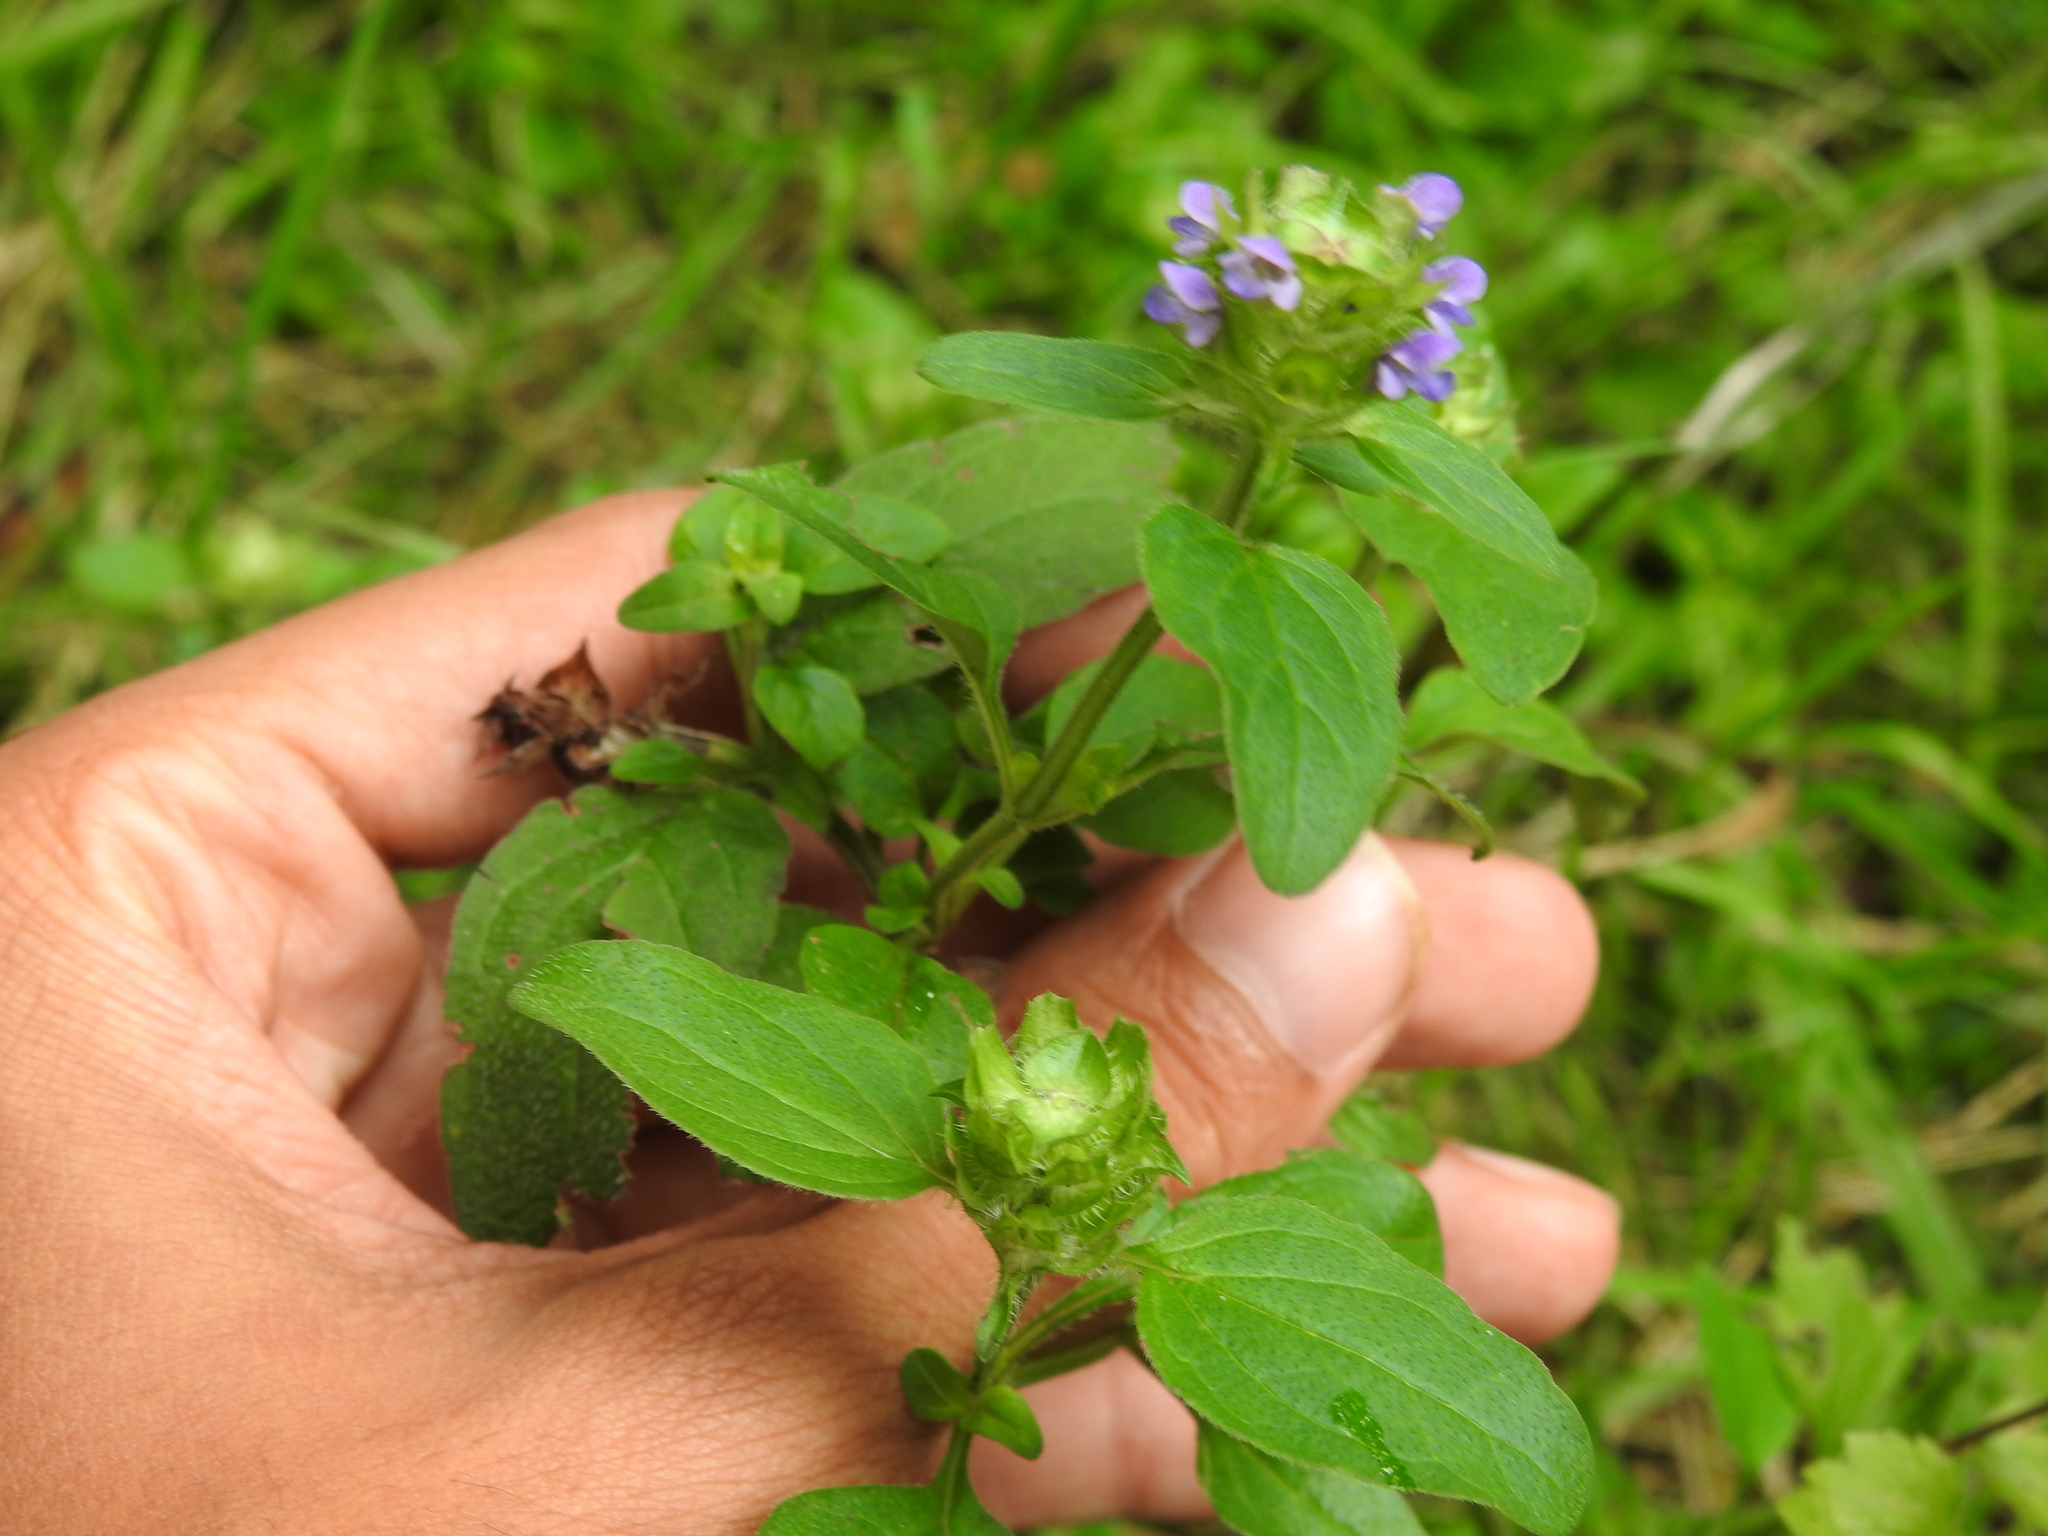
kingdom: Plantae
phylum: Tracheophyta
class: Magnoliopsida
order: Lamiales
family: Lamiaceae
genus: Prunella
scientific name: Prunella vulgaris
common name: Heal-all
